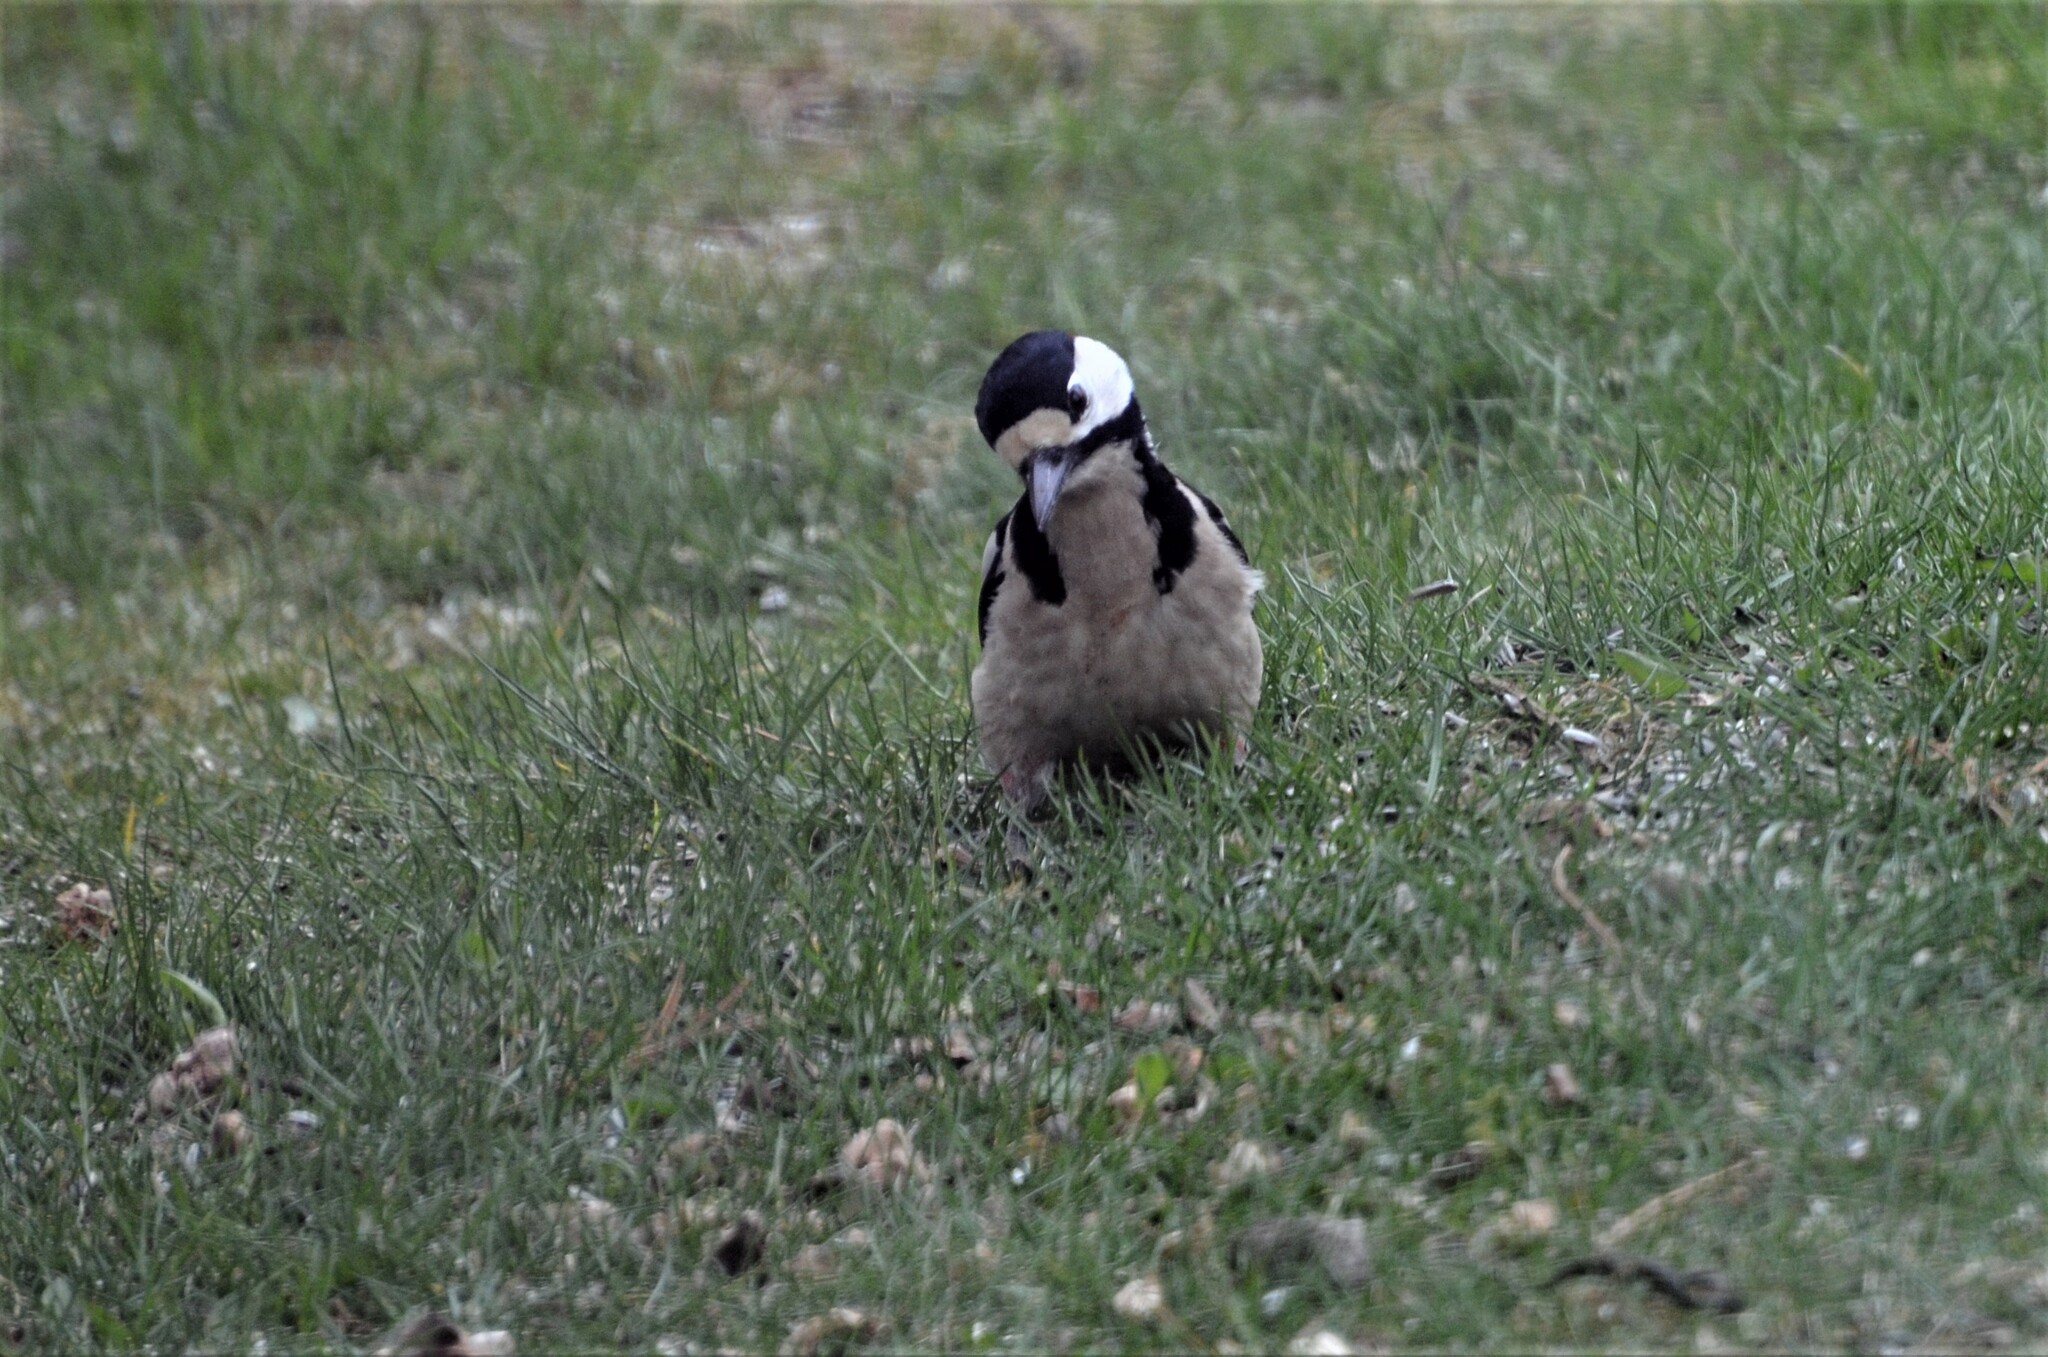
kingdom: Animalia
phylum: Chordata
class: Aves
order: Piciformes
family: Picidae
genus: Dendrocopos
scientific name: Dendrocopos major
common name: Great spotted woodpecker
